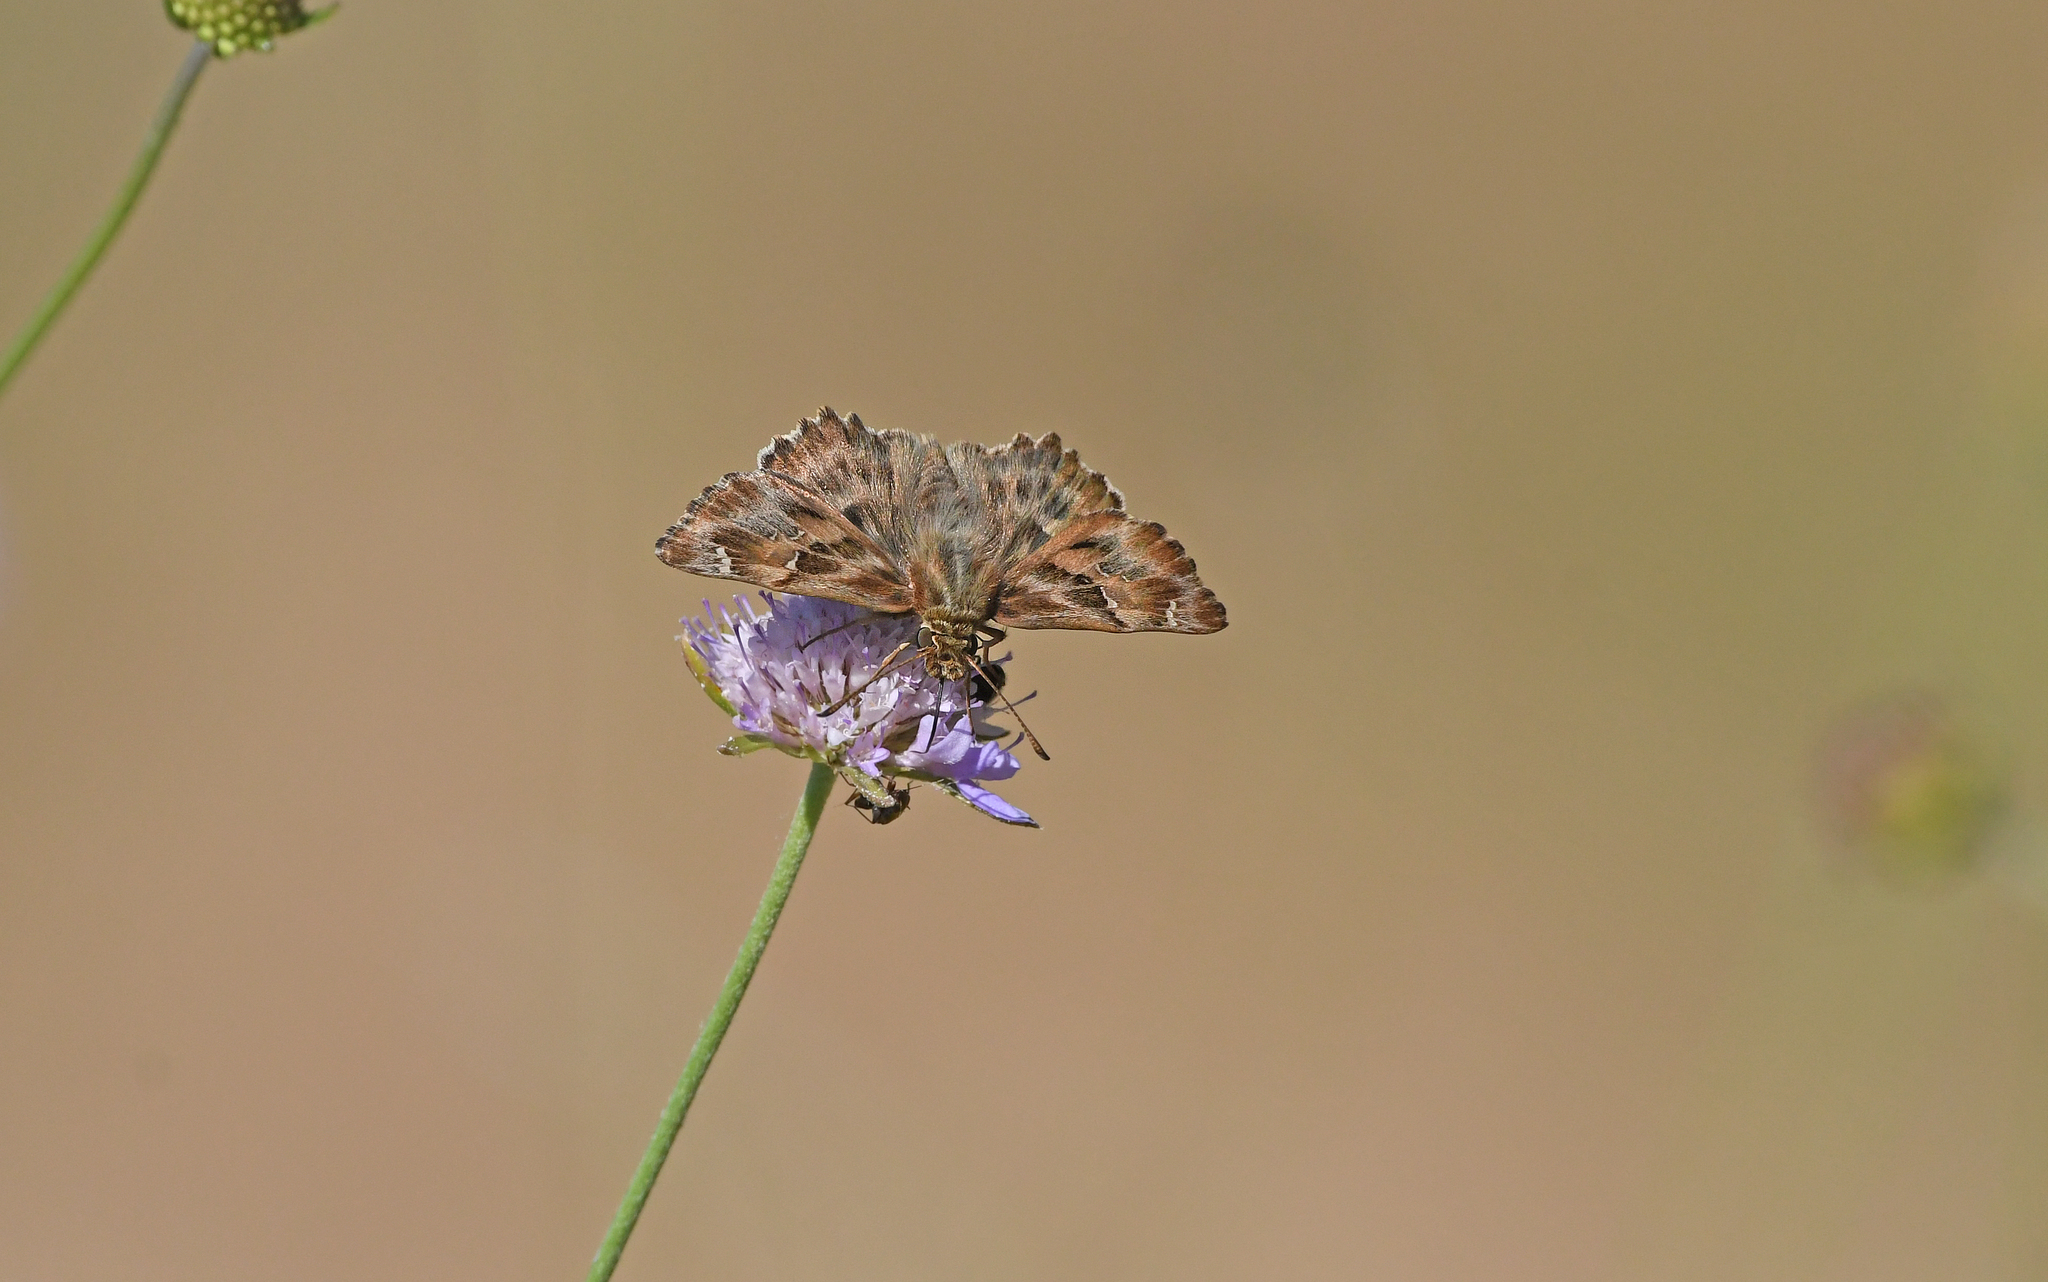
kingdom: Animalia
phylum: Arthropoda
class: Insecta
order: Lepidoptera
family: Hesperiidae
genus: Carcharodus
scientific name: Carcharodus alceae
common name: Mallow skipper
